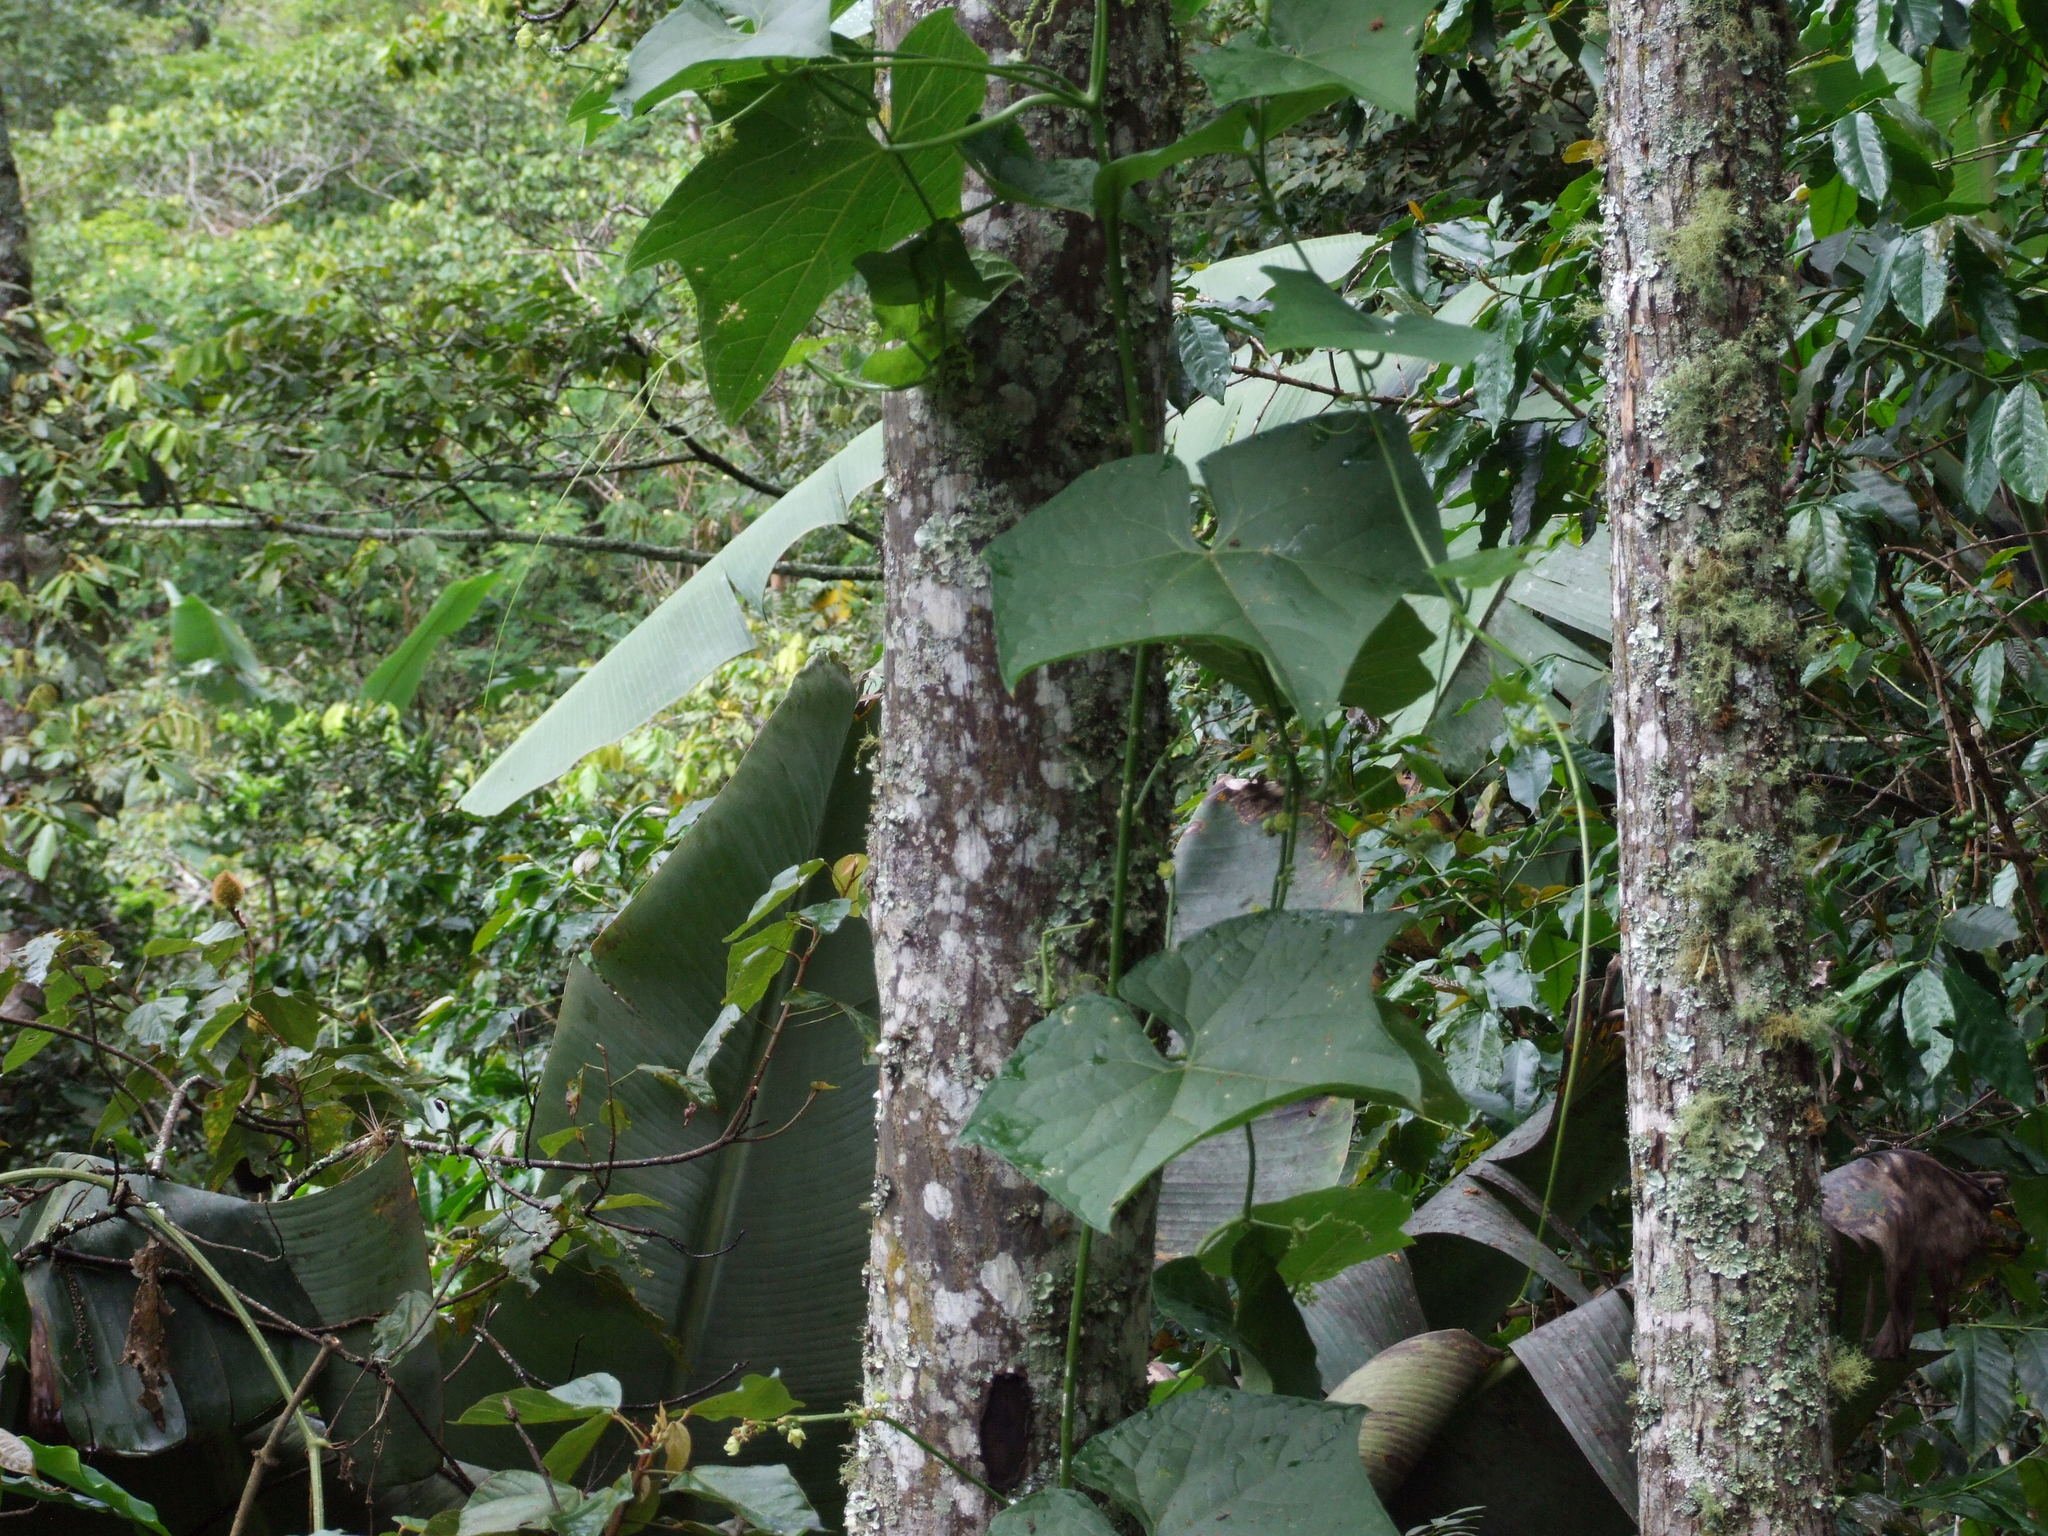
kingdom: Plantae
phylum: Tracheophyta
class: Magnoliopsida
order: Cucurbitales
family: Cucurbitaceae
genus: Sechium
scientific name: Sechium edule
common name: Chayote
